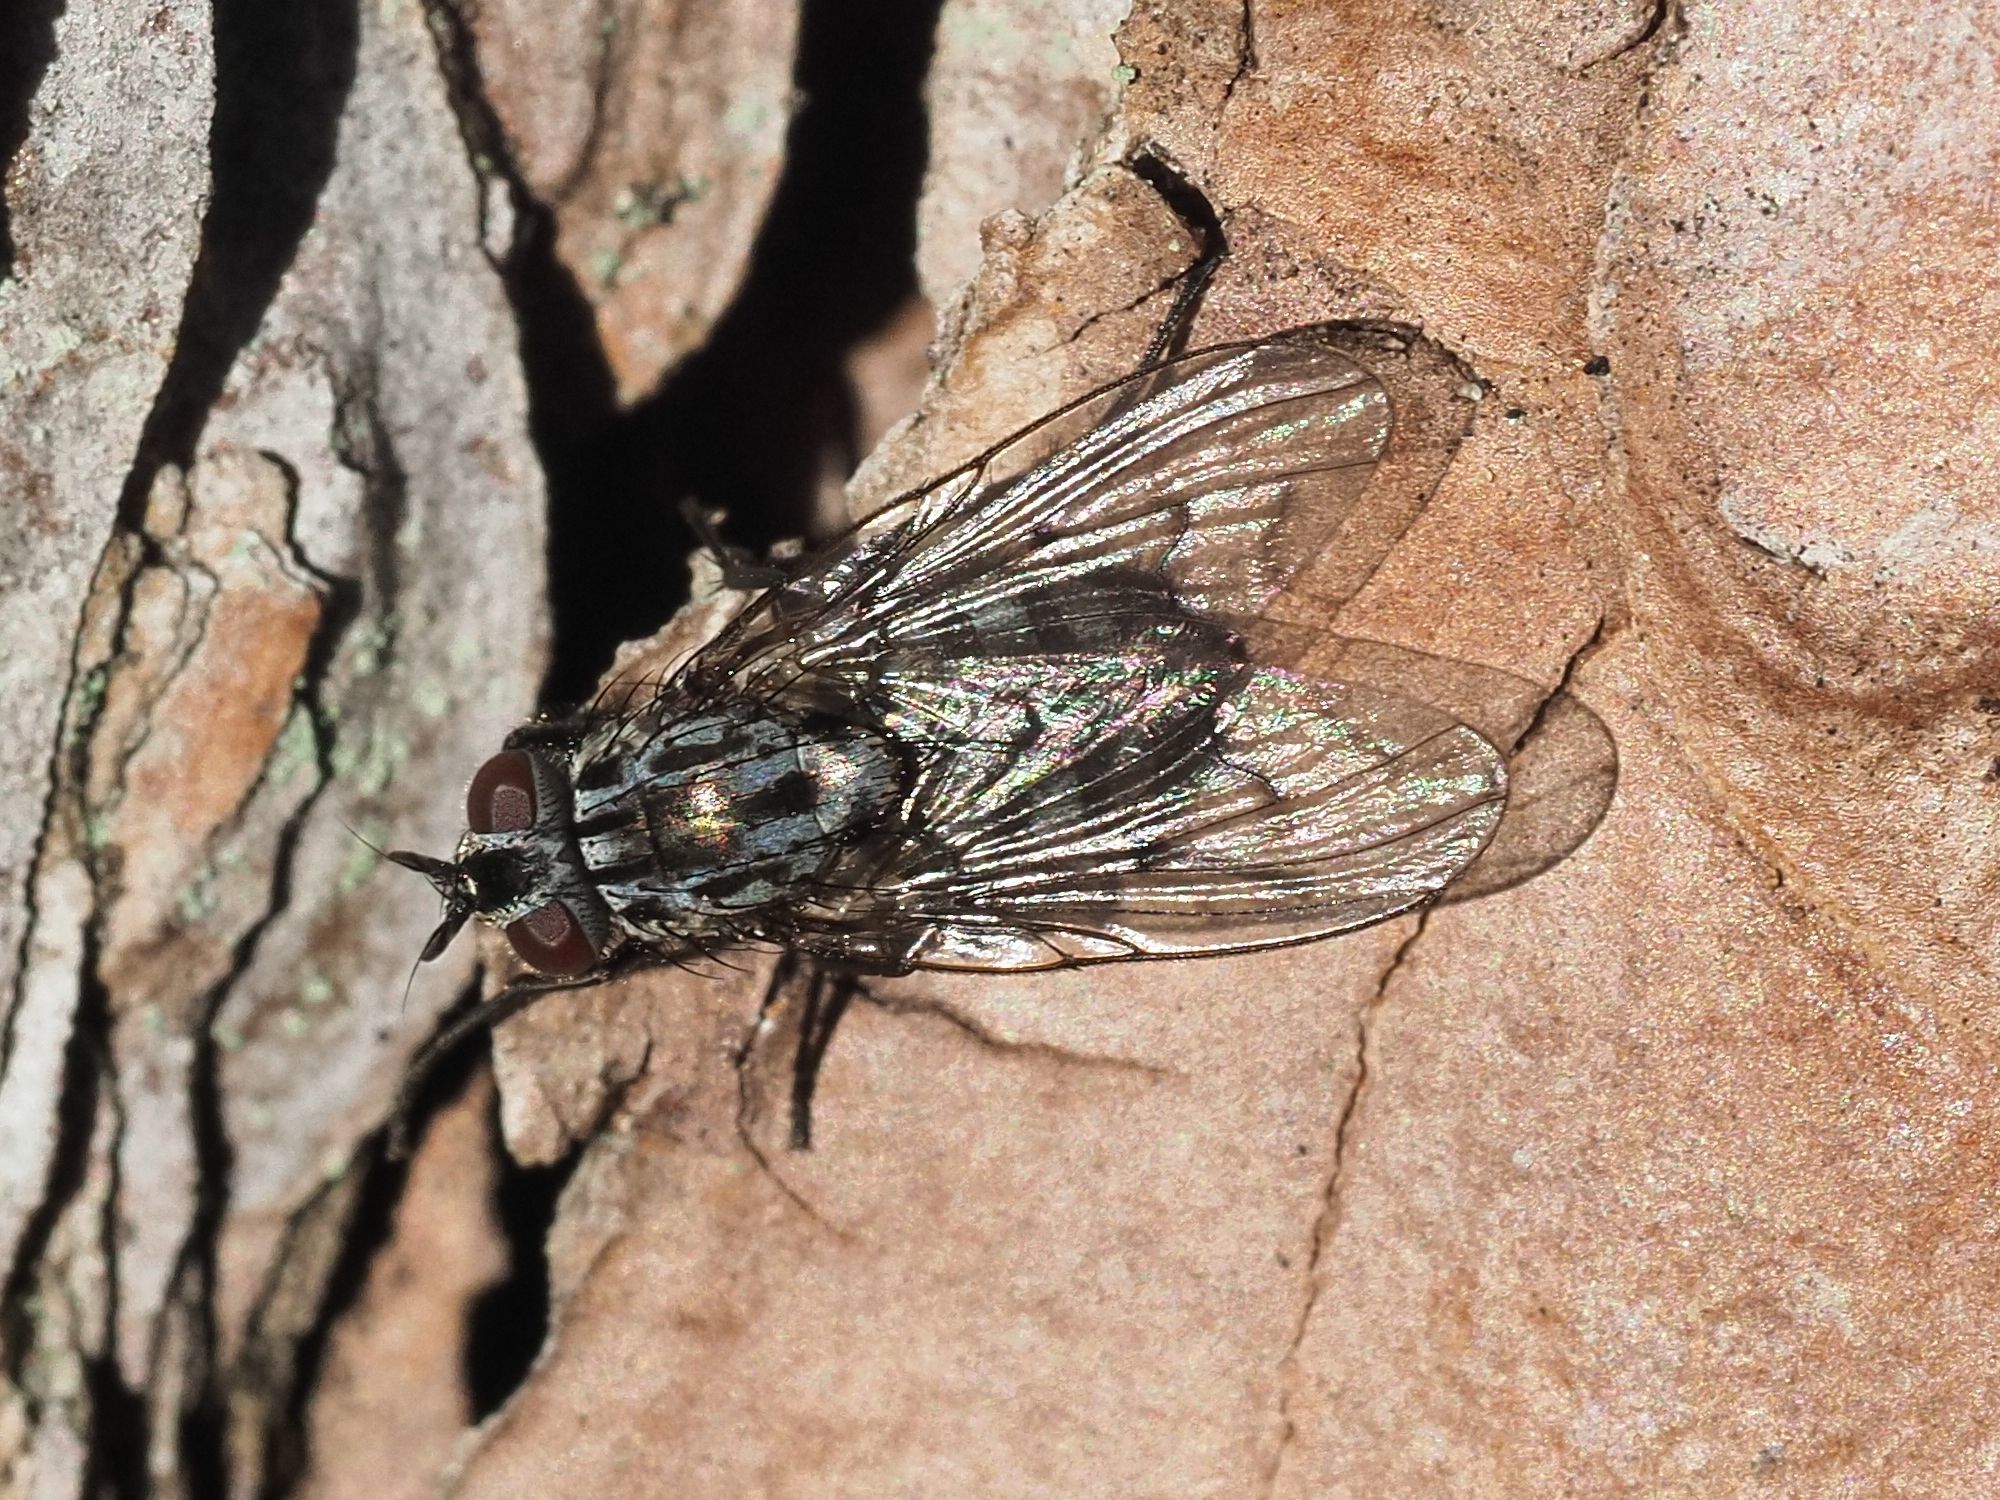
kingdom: Animalia
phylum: Arthropoda
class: Insecta
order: Diptera
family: Muscidae
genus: Phaonia
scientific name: Phaonia trimaculata
